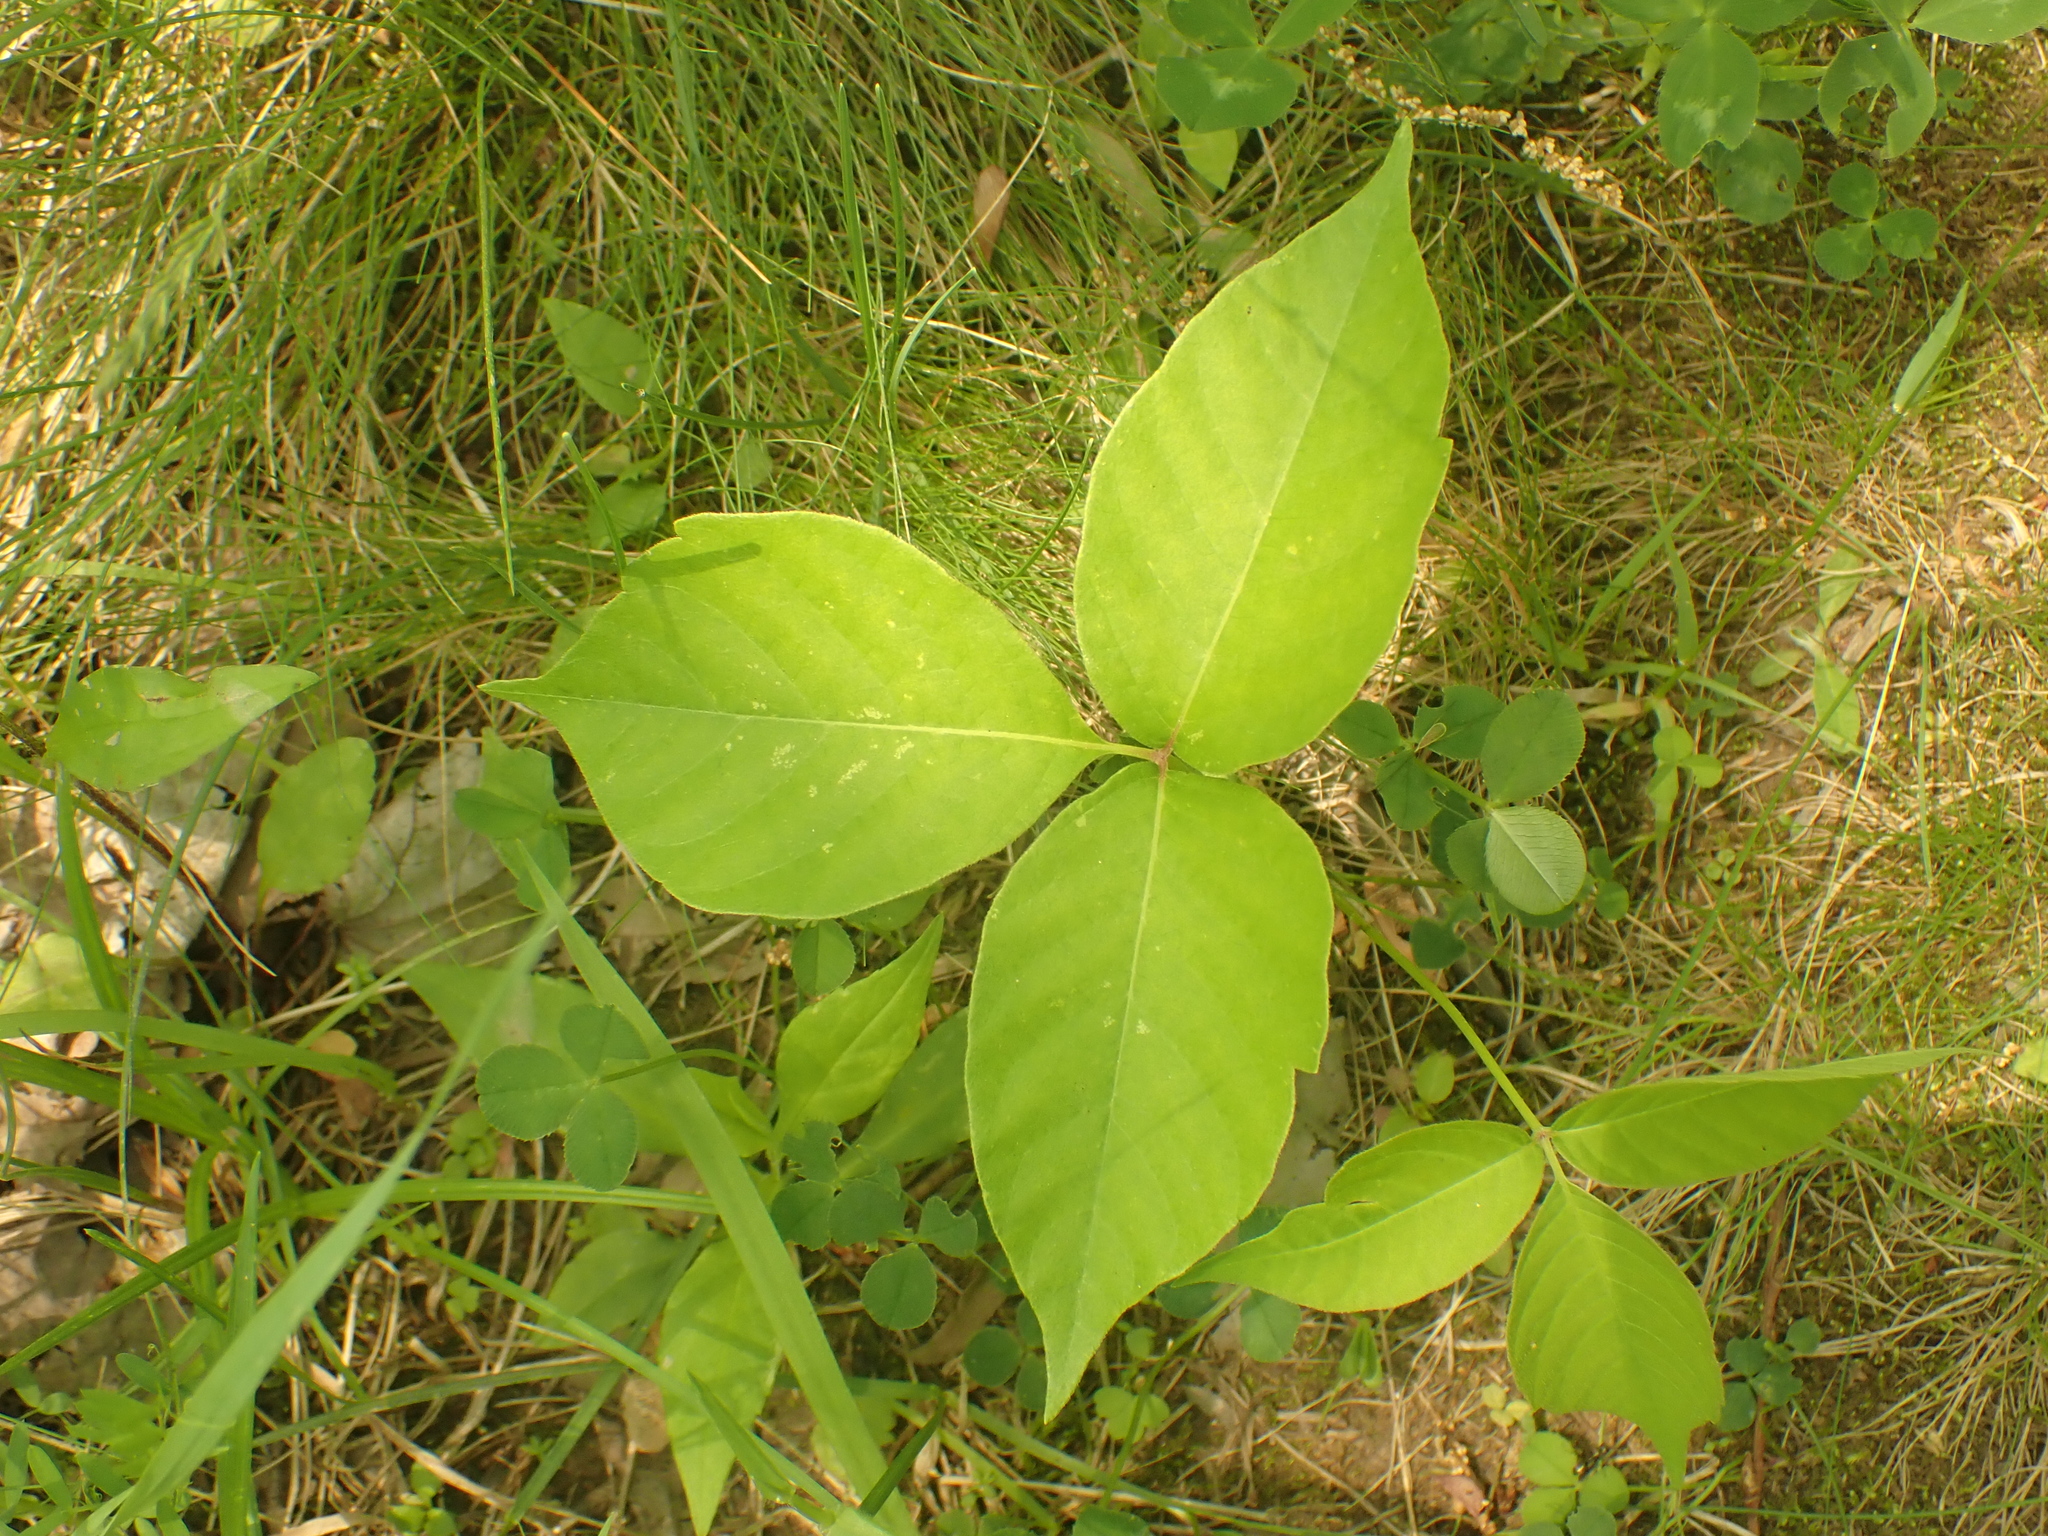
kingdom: Plantae
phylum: Tracheophyta
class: Magnoliopsida
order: Sapindales
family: Anacardiaceae
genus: Toxicodendron
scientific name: Toxicodendron radicans
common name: Poison ivy
